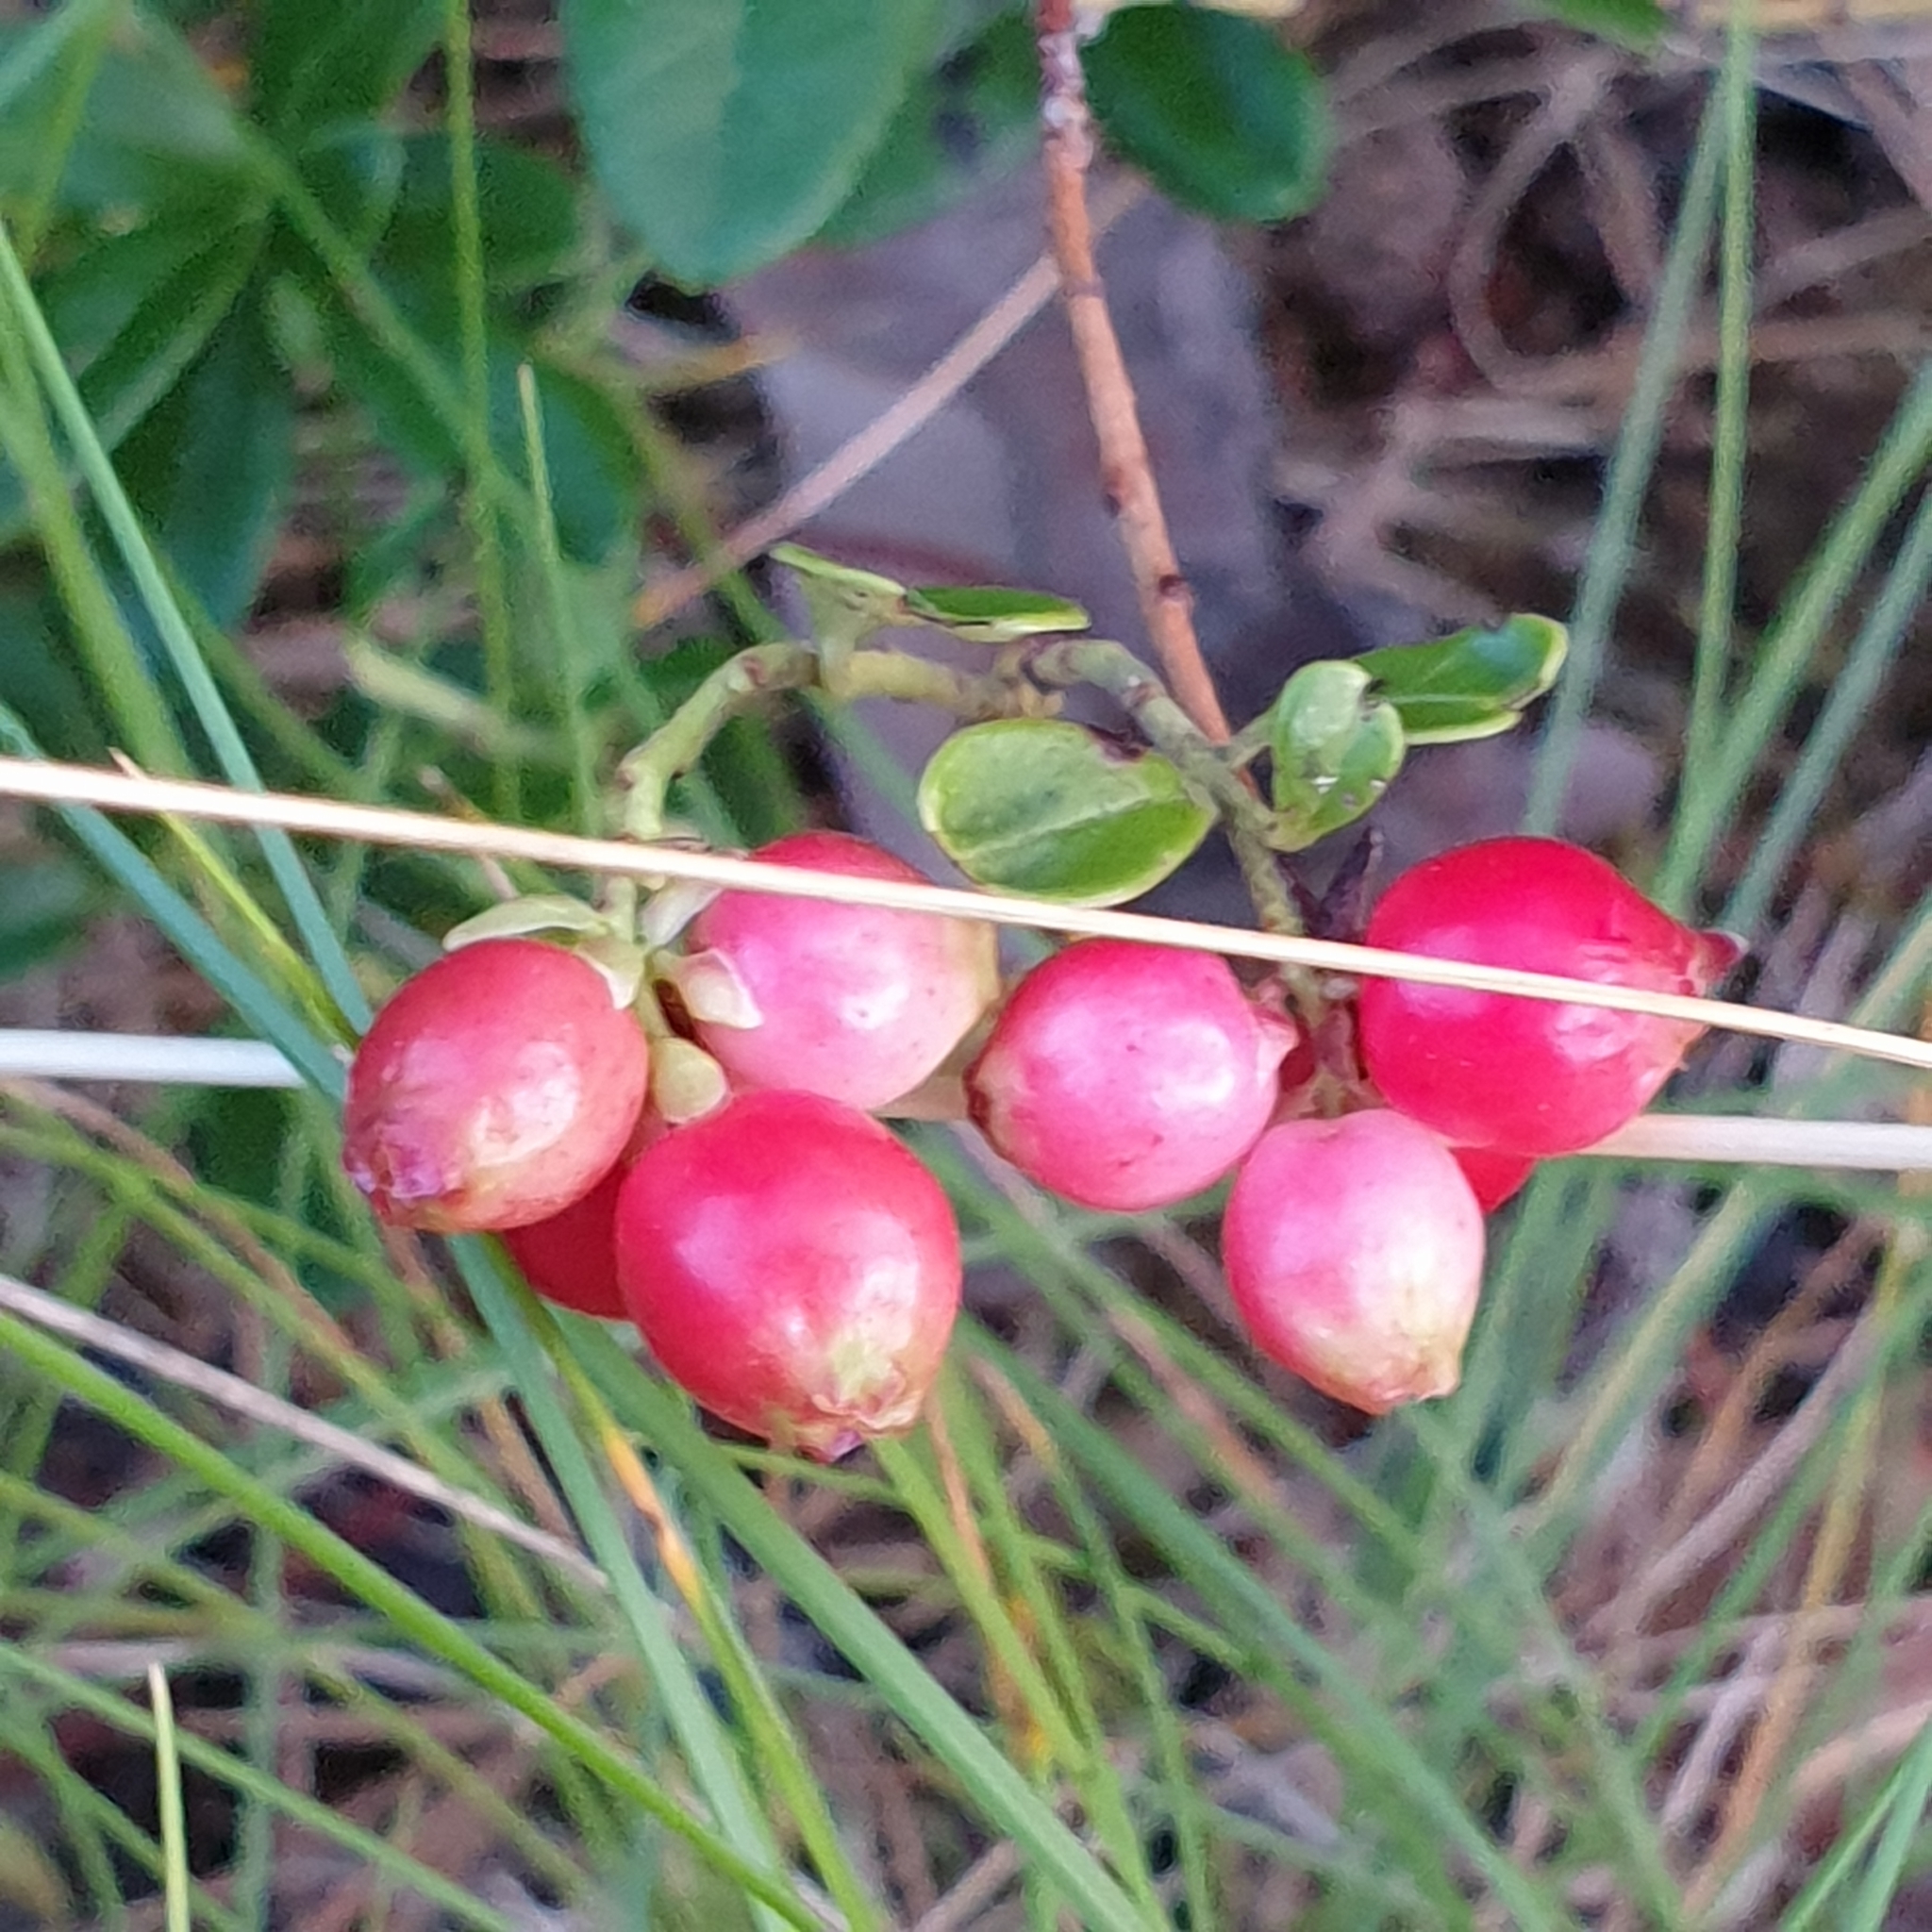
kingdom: Plantae
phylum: Tracheophyta
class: Magnoliopsida
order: Ericales
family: Ericaceae
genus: Vaccinium
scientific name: Vaccinium vitis-idaea
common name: Cowberry
